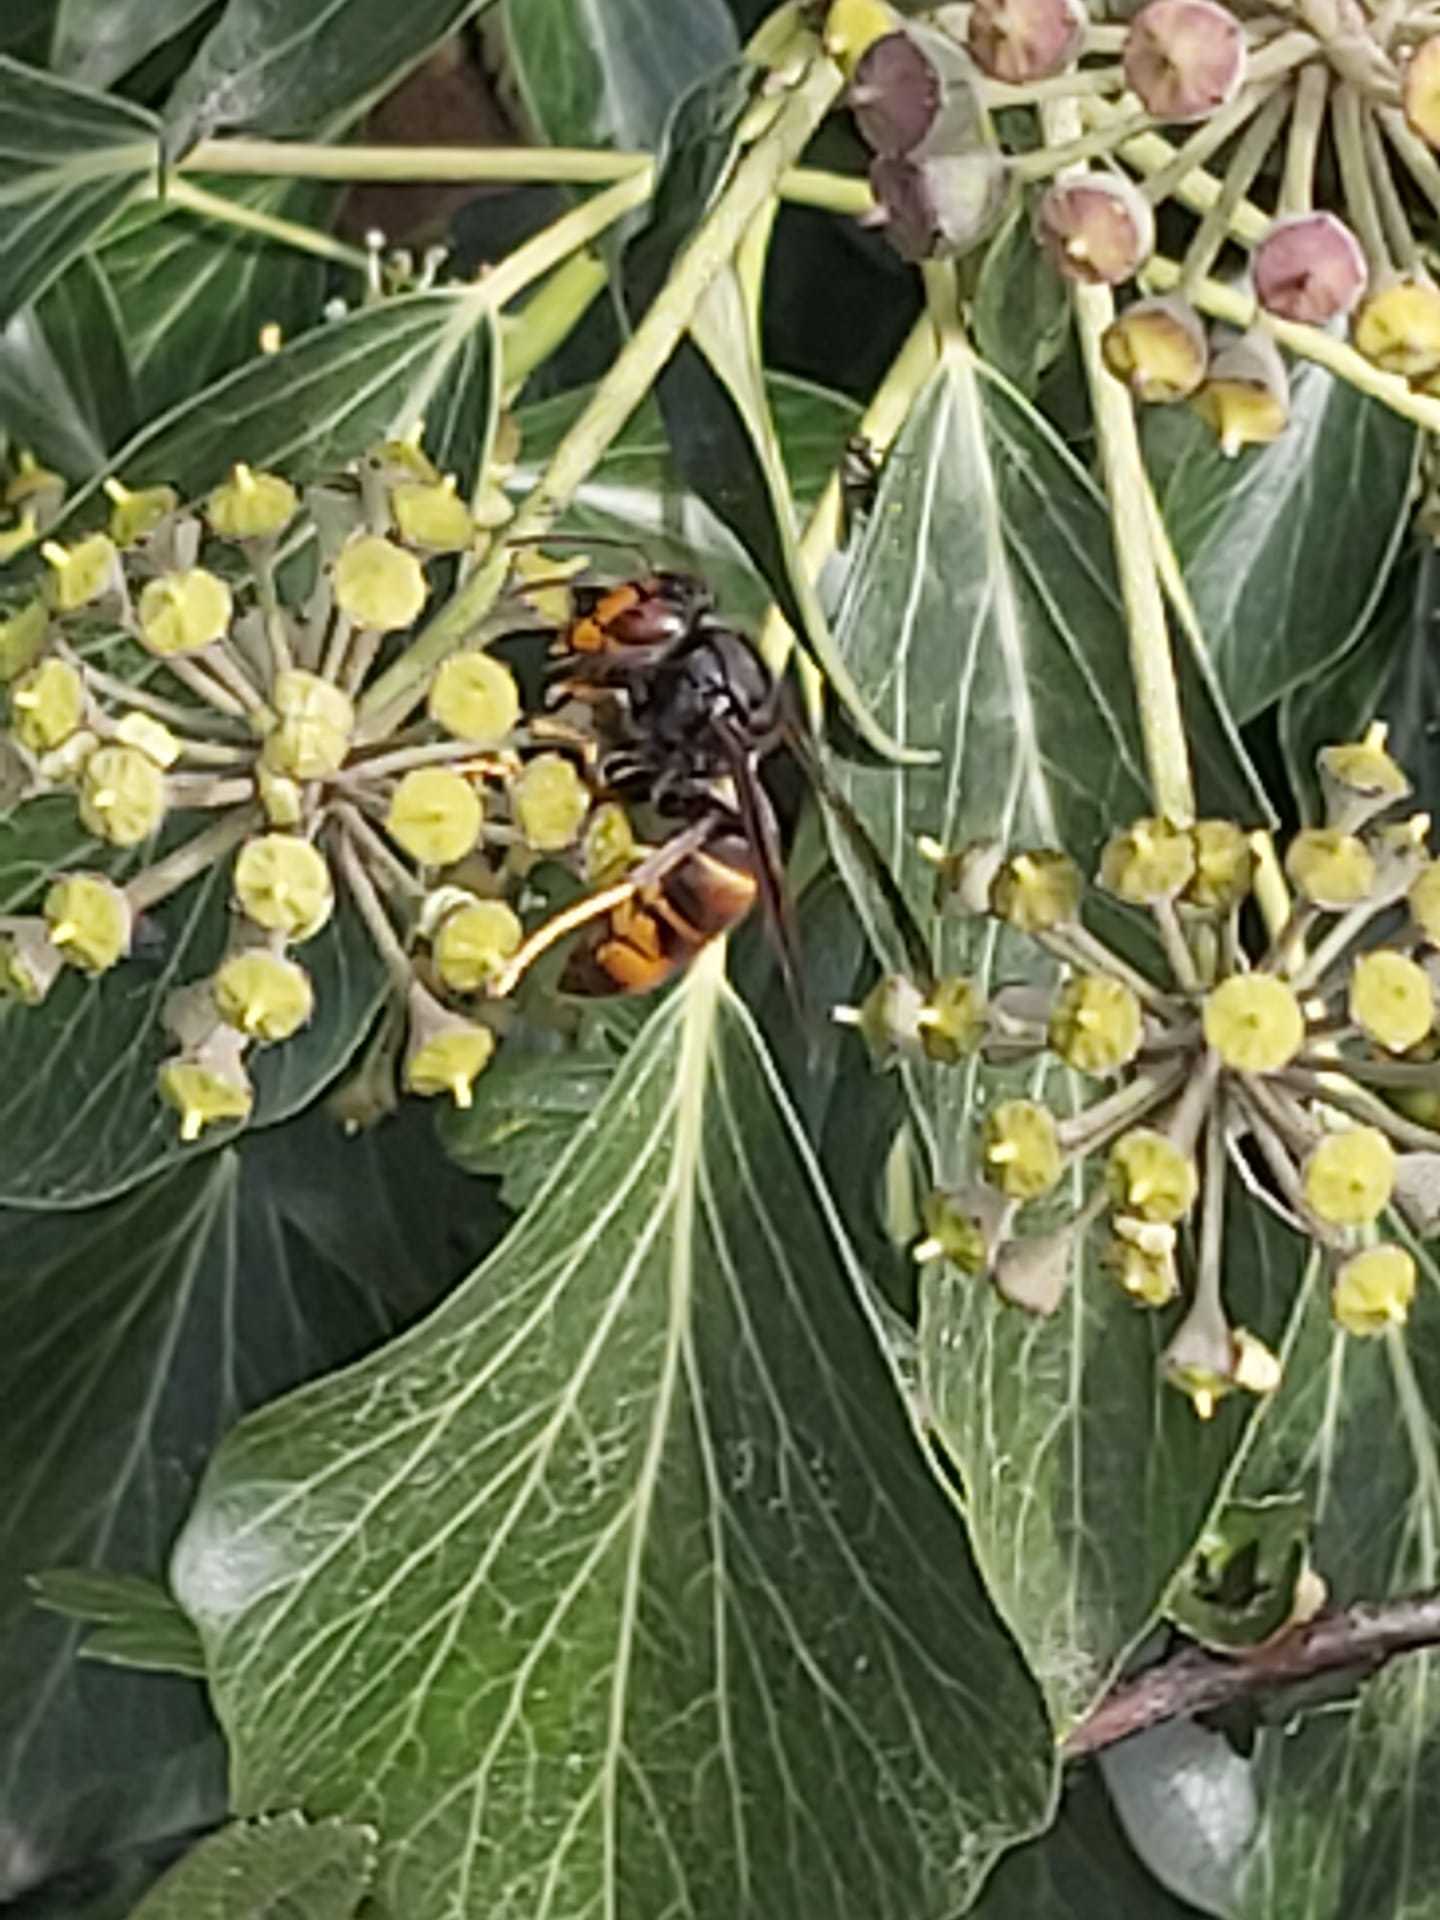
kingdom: Animalia
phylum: Arthropoda
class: Insecta
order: Hymenoptera
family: Vespidae
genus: Vespa
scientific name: Vespa velutina
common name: Asian hornet
